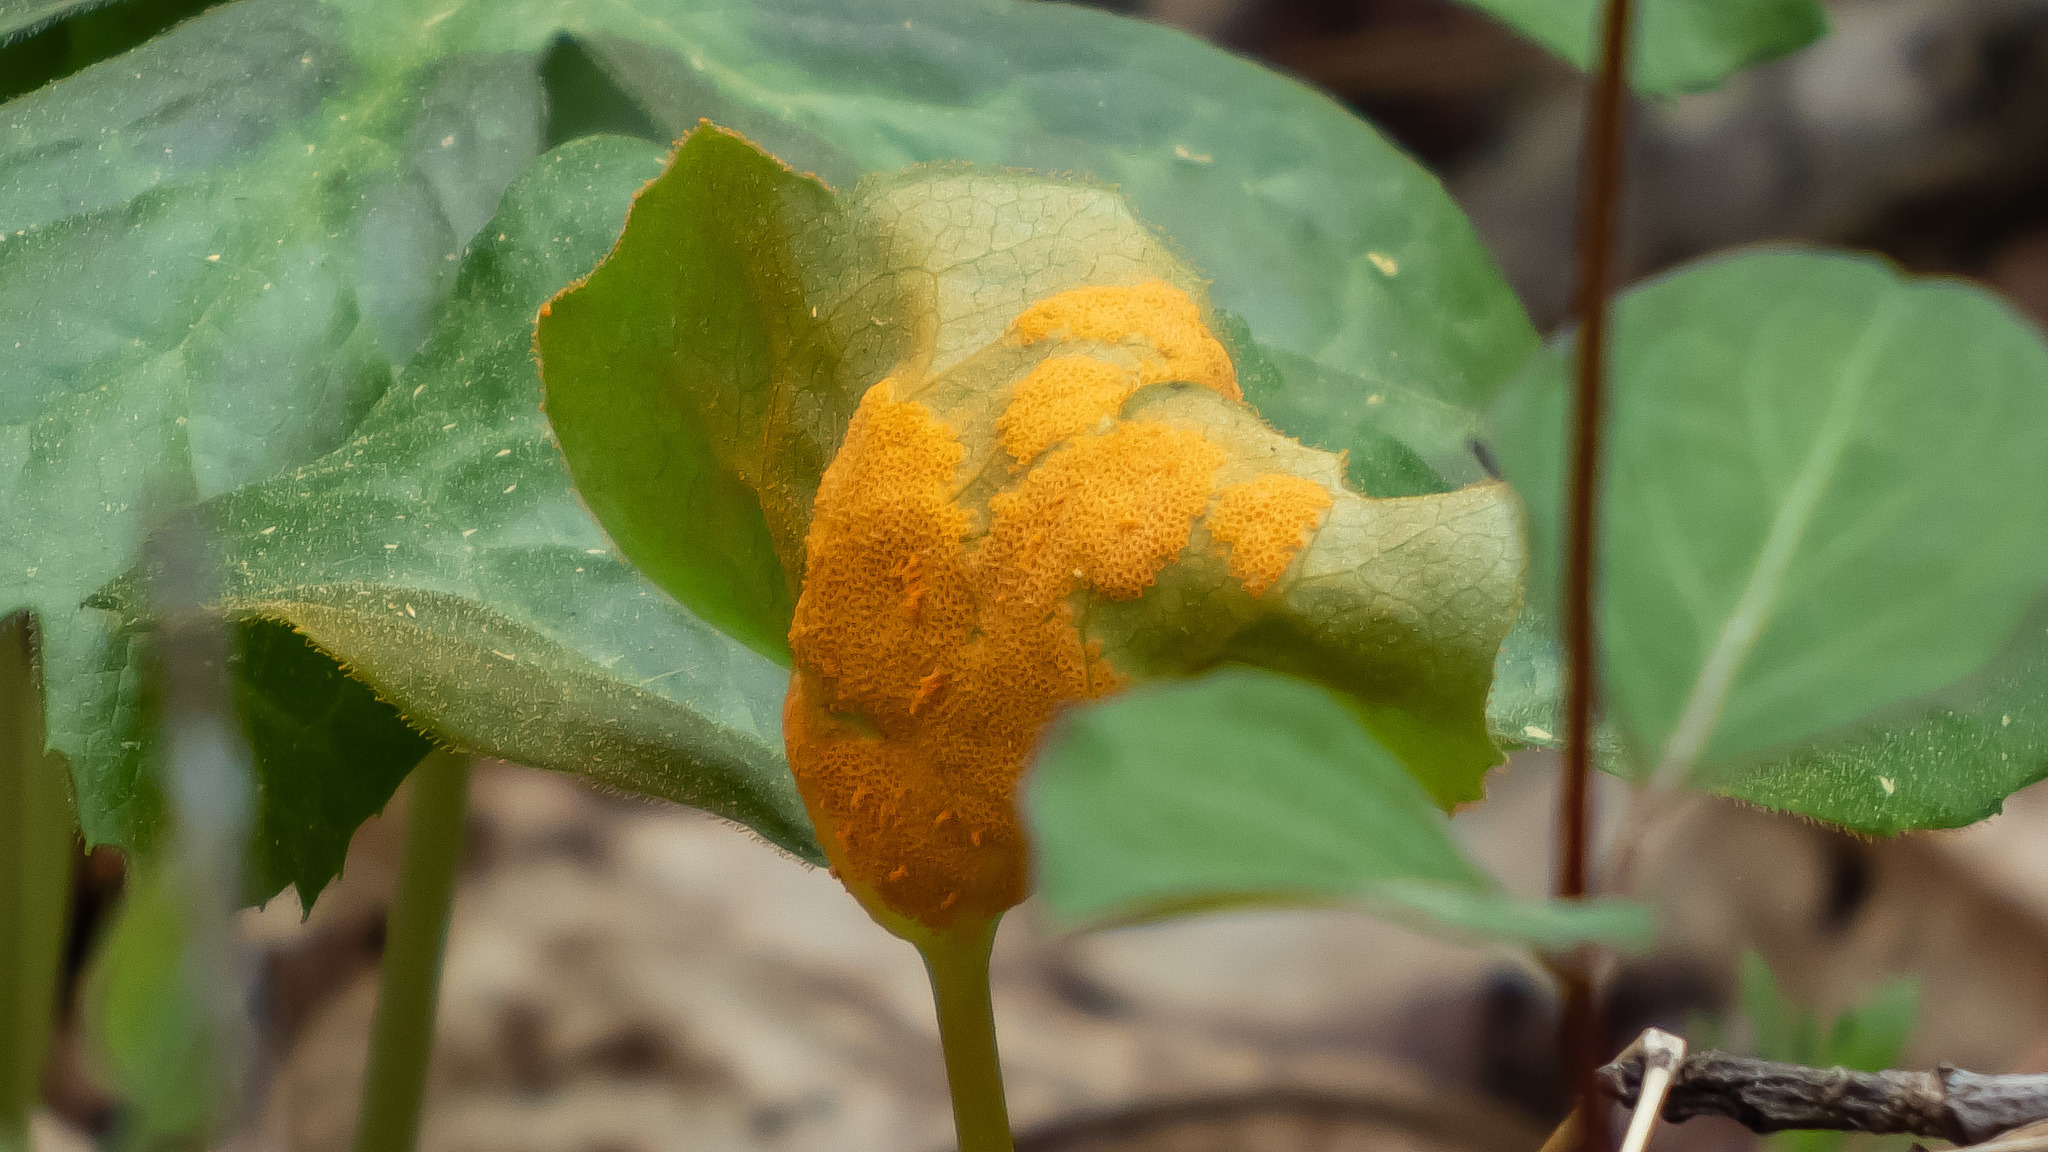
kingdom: Fungi
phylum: Basidiomycota
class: Pucciniomycetes
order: Pucciniales
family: Pucciniaceae
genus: Puccinia
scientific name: Puccinia podophylli
